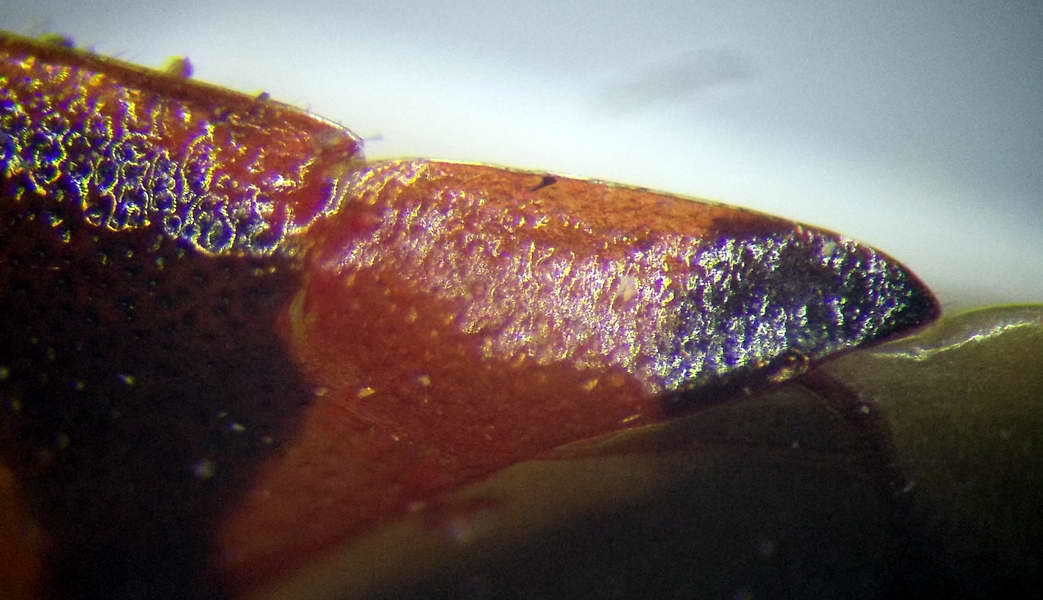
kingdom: Animalia
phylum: Arthropoda
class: Insecta
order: Hemiptera
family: Miridae
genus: Deraeocoris
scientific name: Deraeocoris trifasciatus
